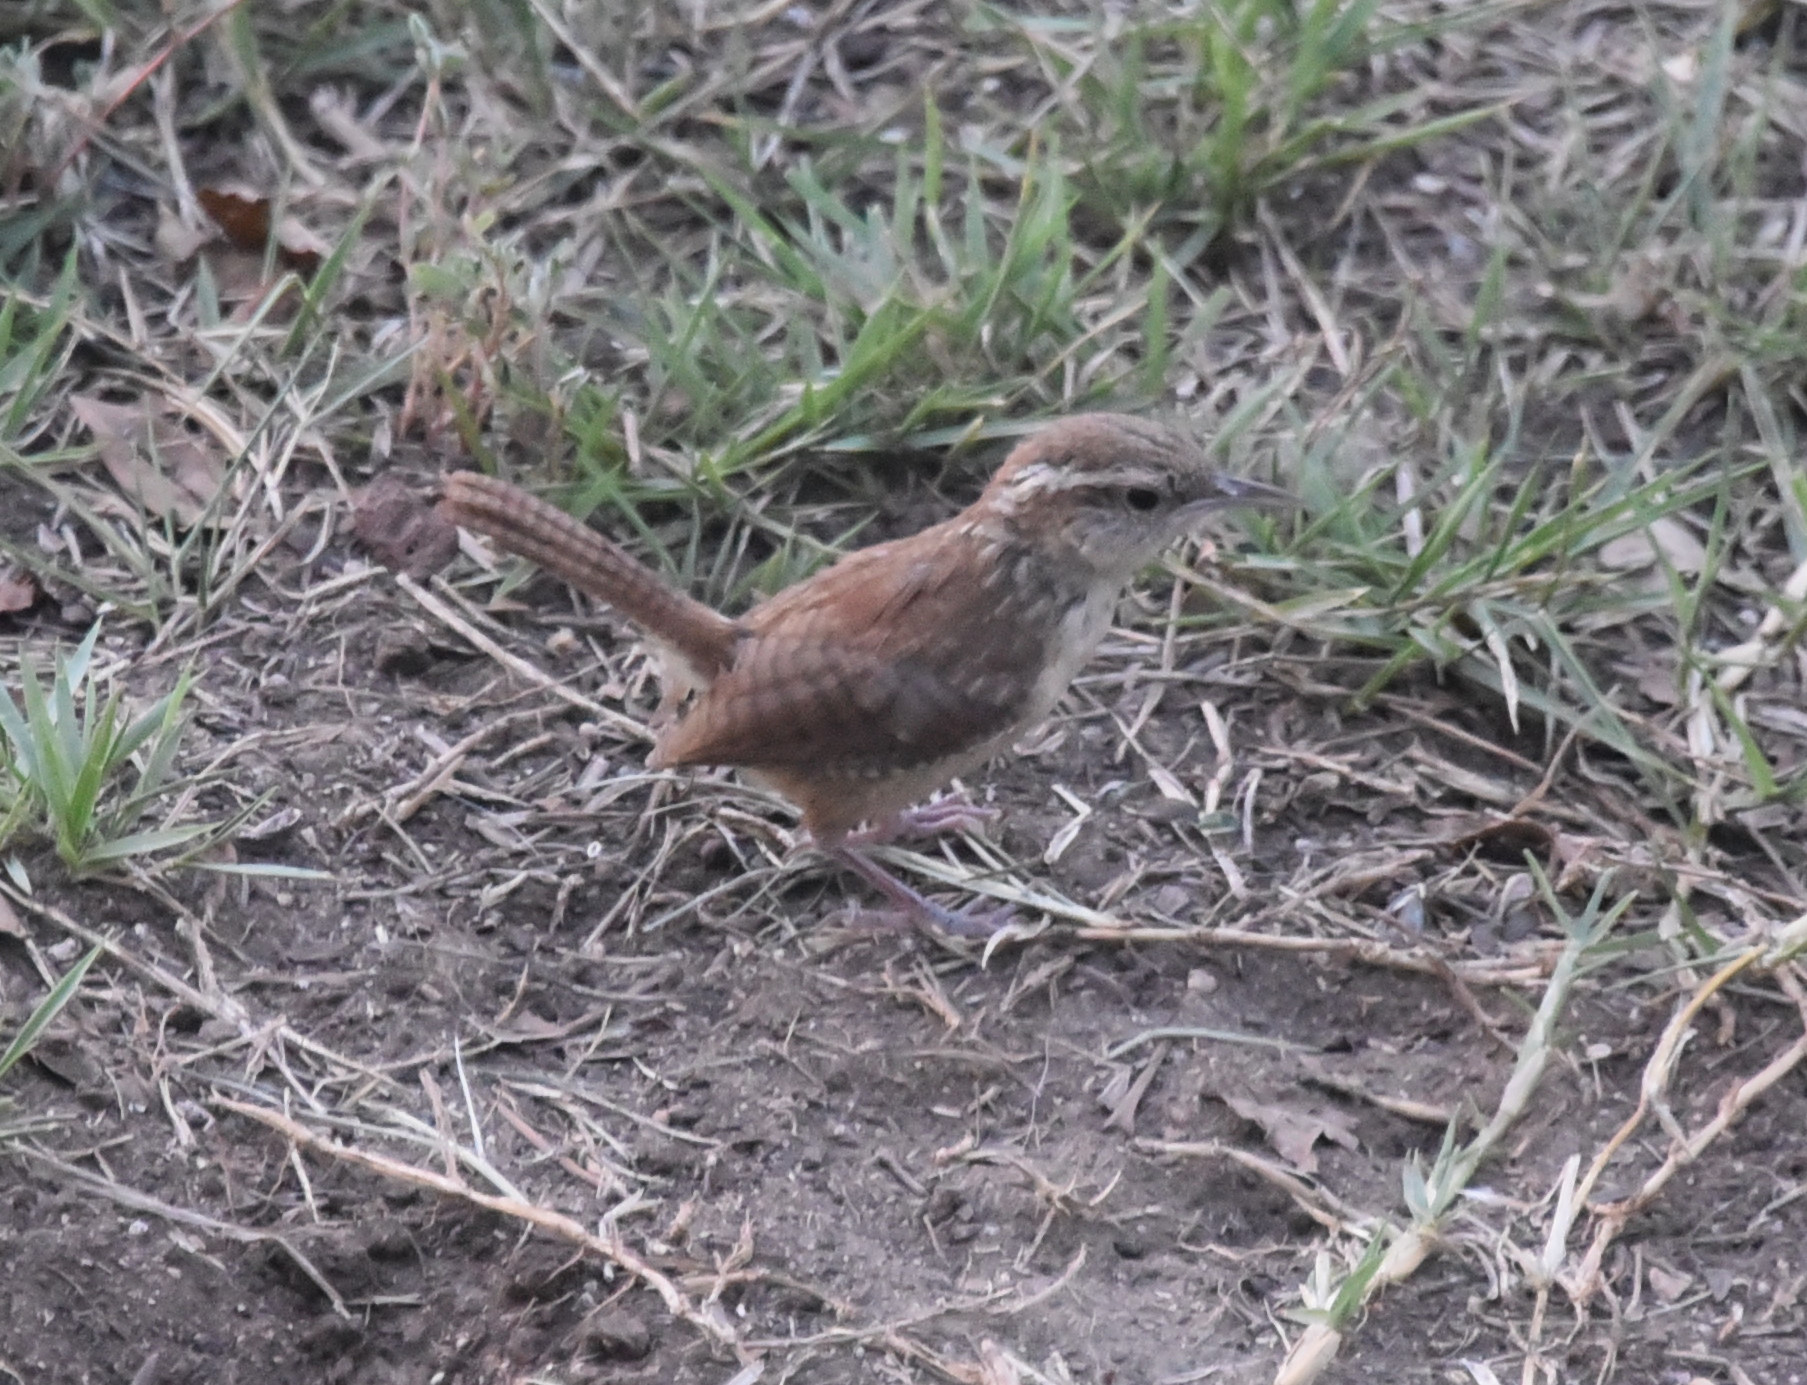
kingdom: Animalia
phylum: Chordata
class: Aves
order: Passeriformes
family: Troglodytidae
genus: Thryothorus
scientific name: Thryothorus ludovicianus
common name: Carolina wren
